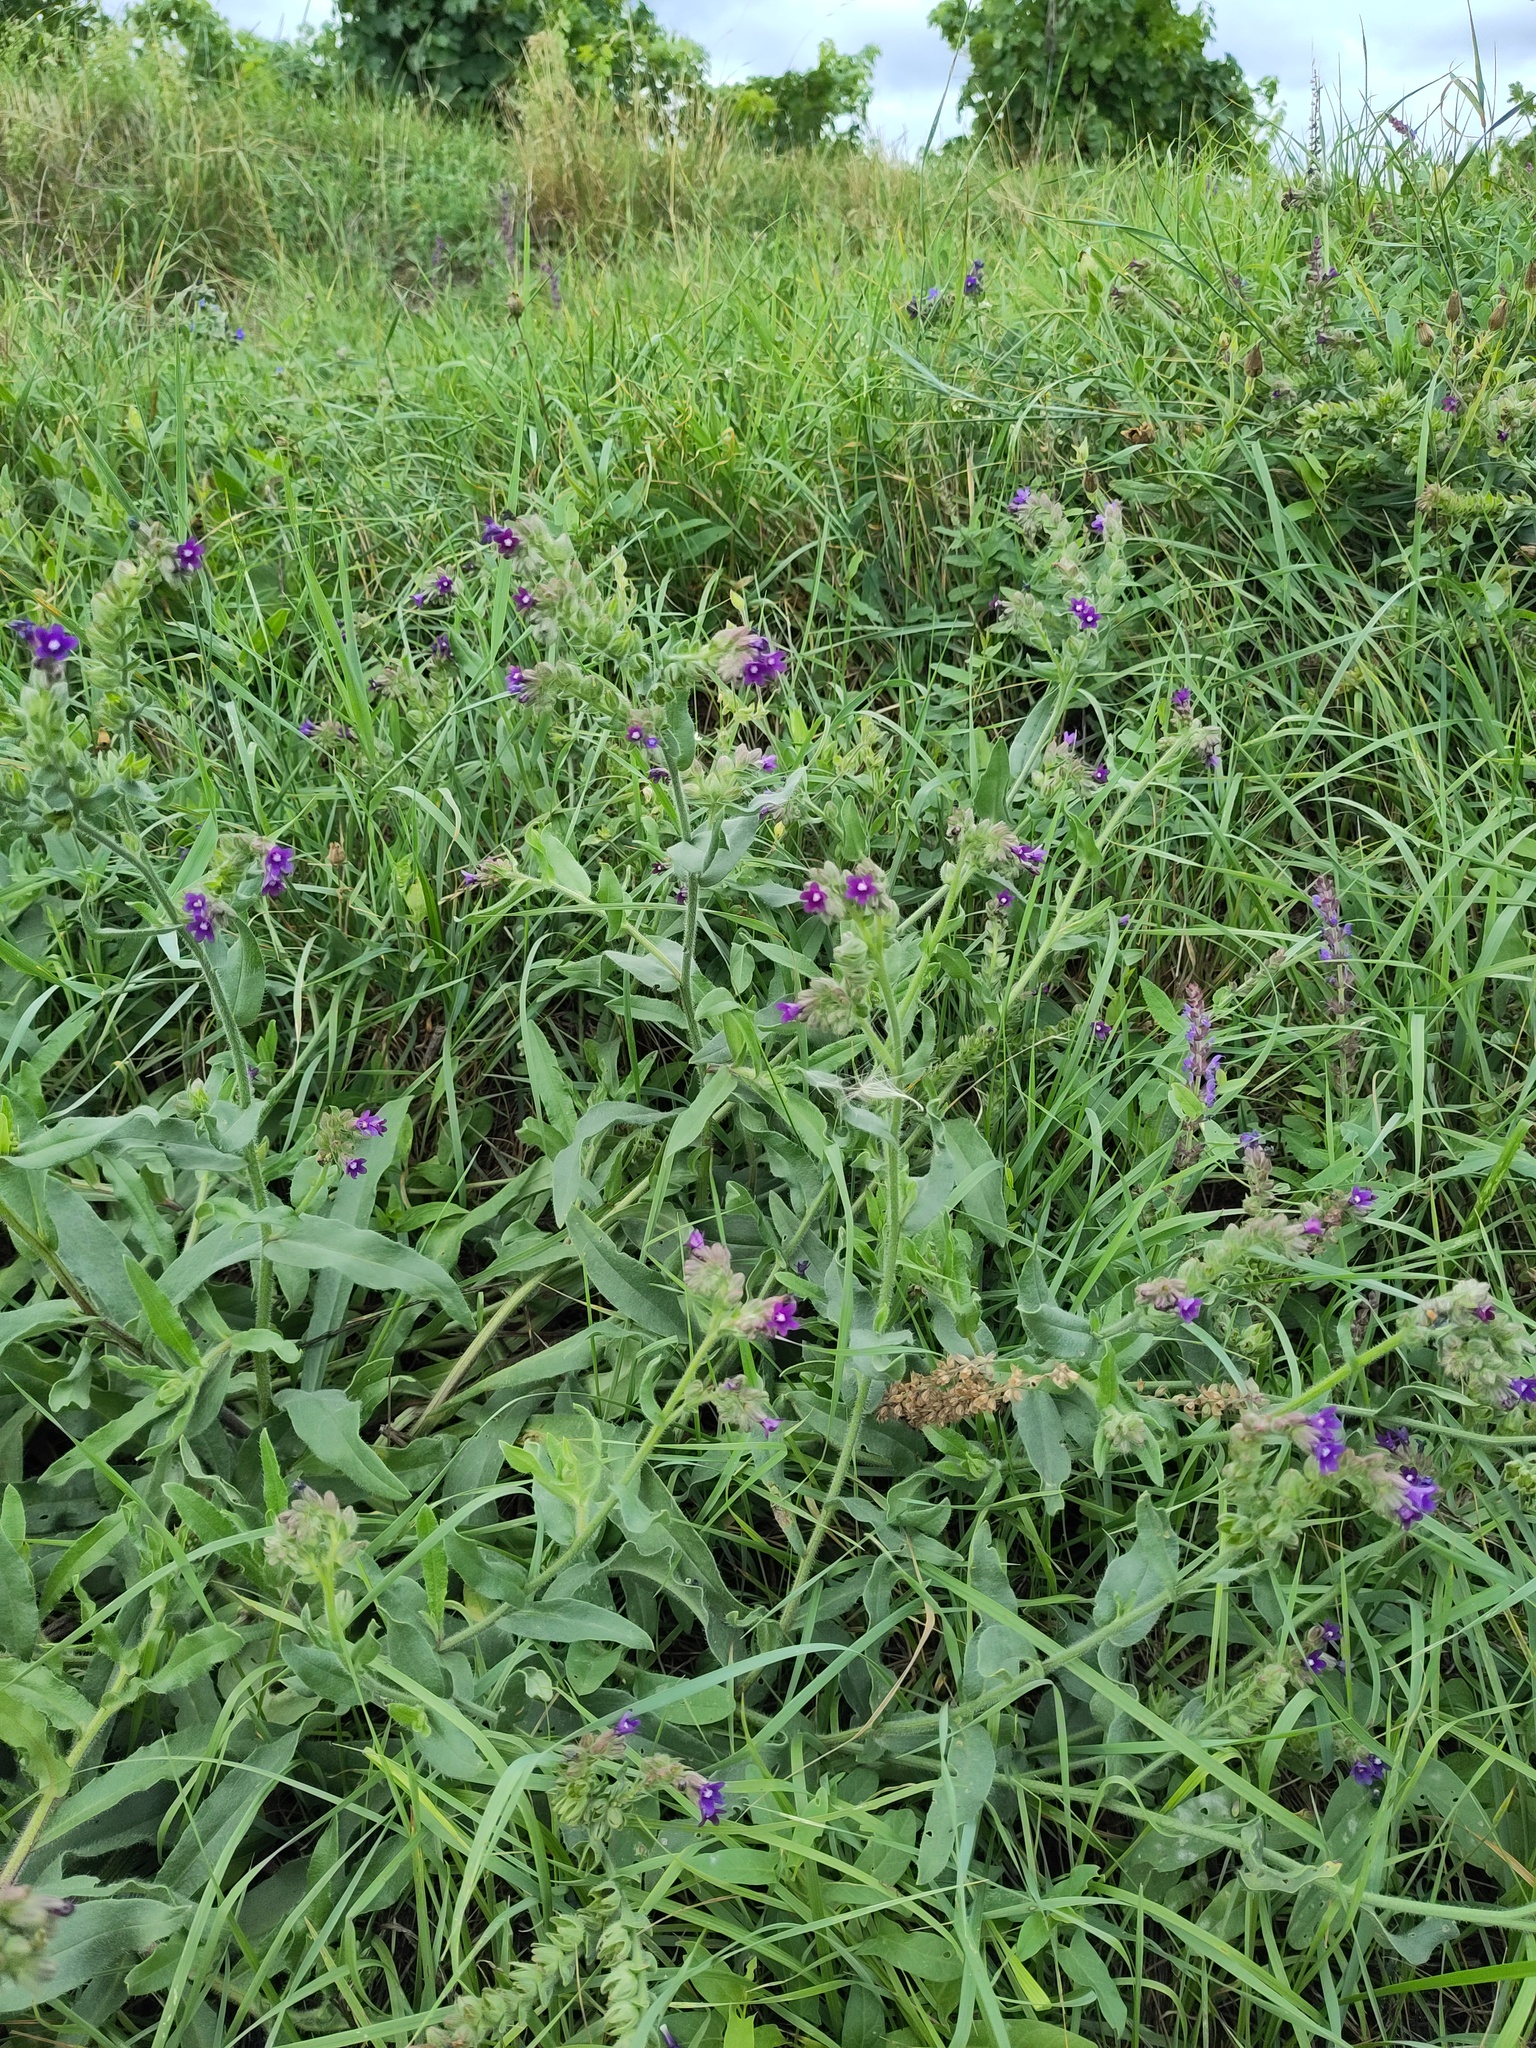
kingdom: Plantae
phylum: Tracheophyta
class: Magnoliopsida
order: Boraginales
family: Boraginaceae
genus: Anchusa
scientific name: Anchusa officinalis
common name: Alkanet
